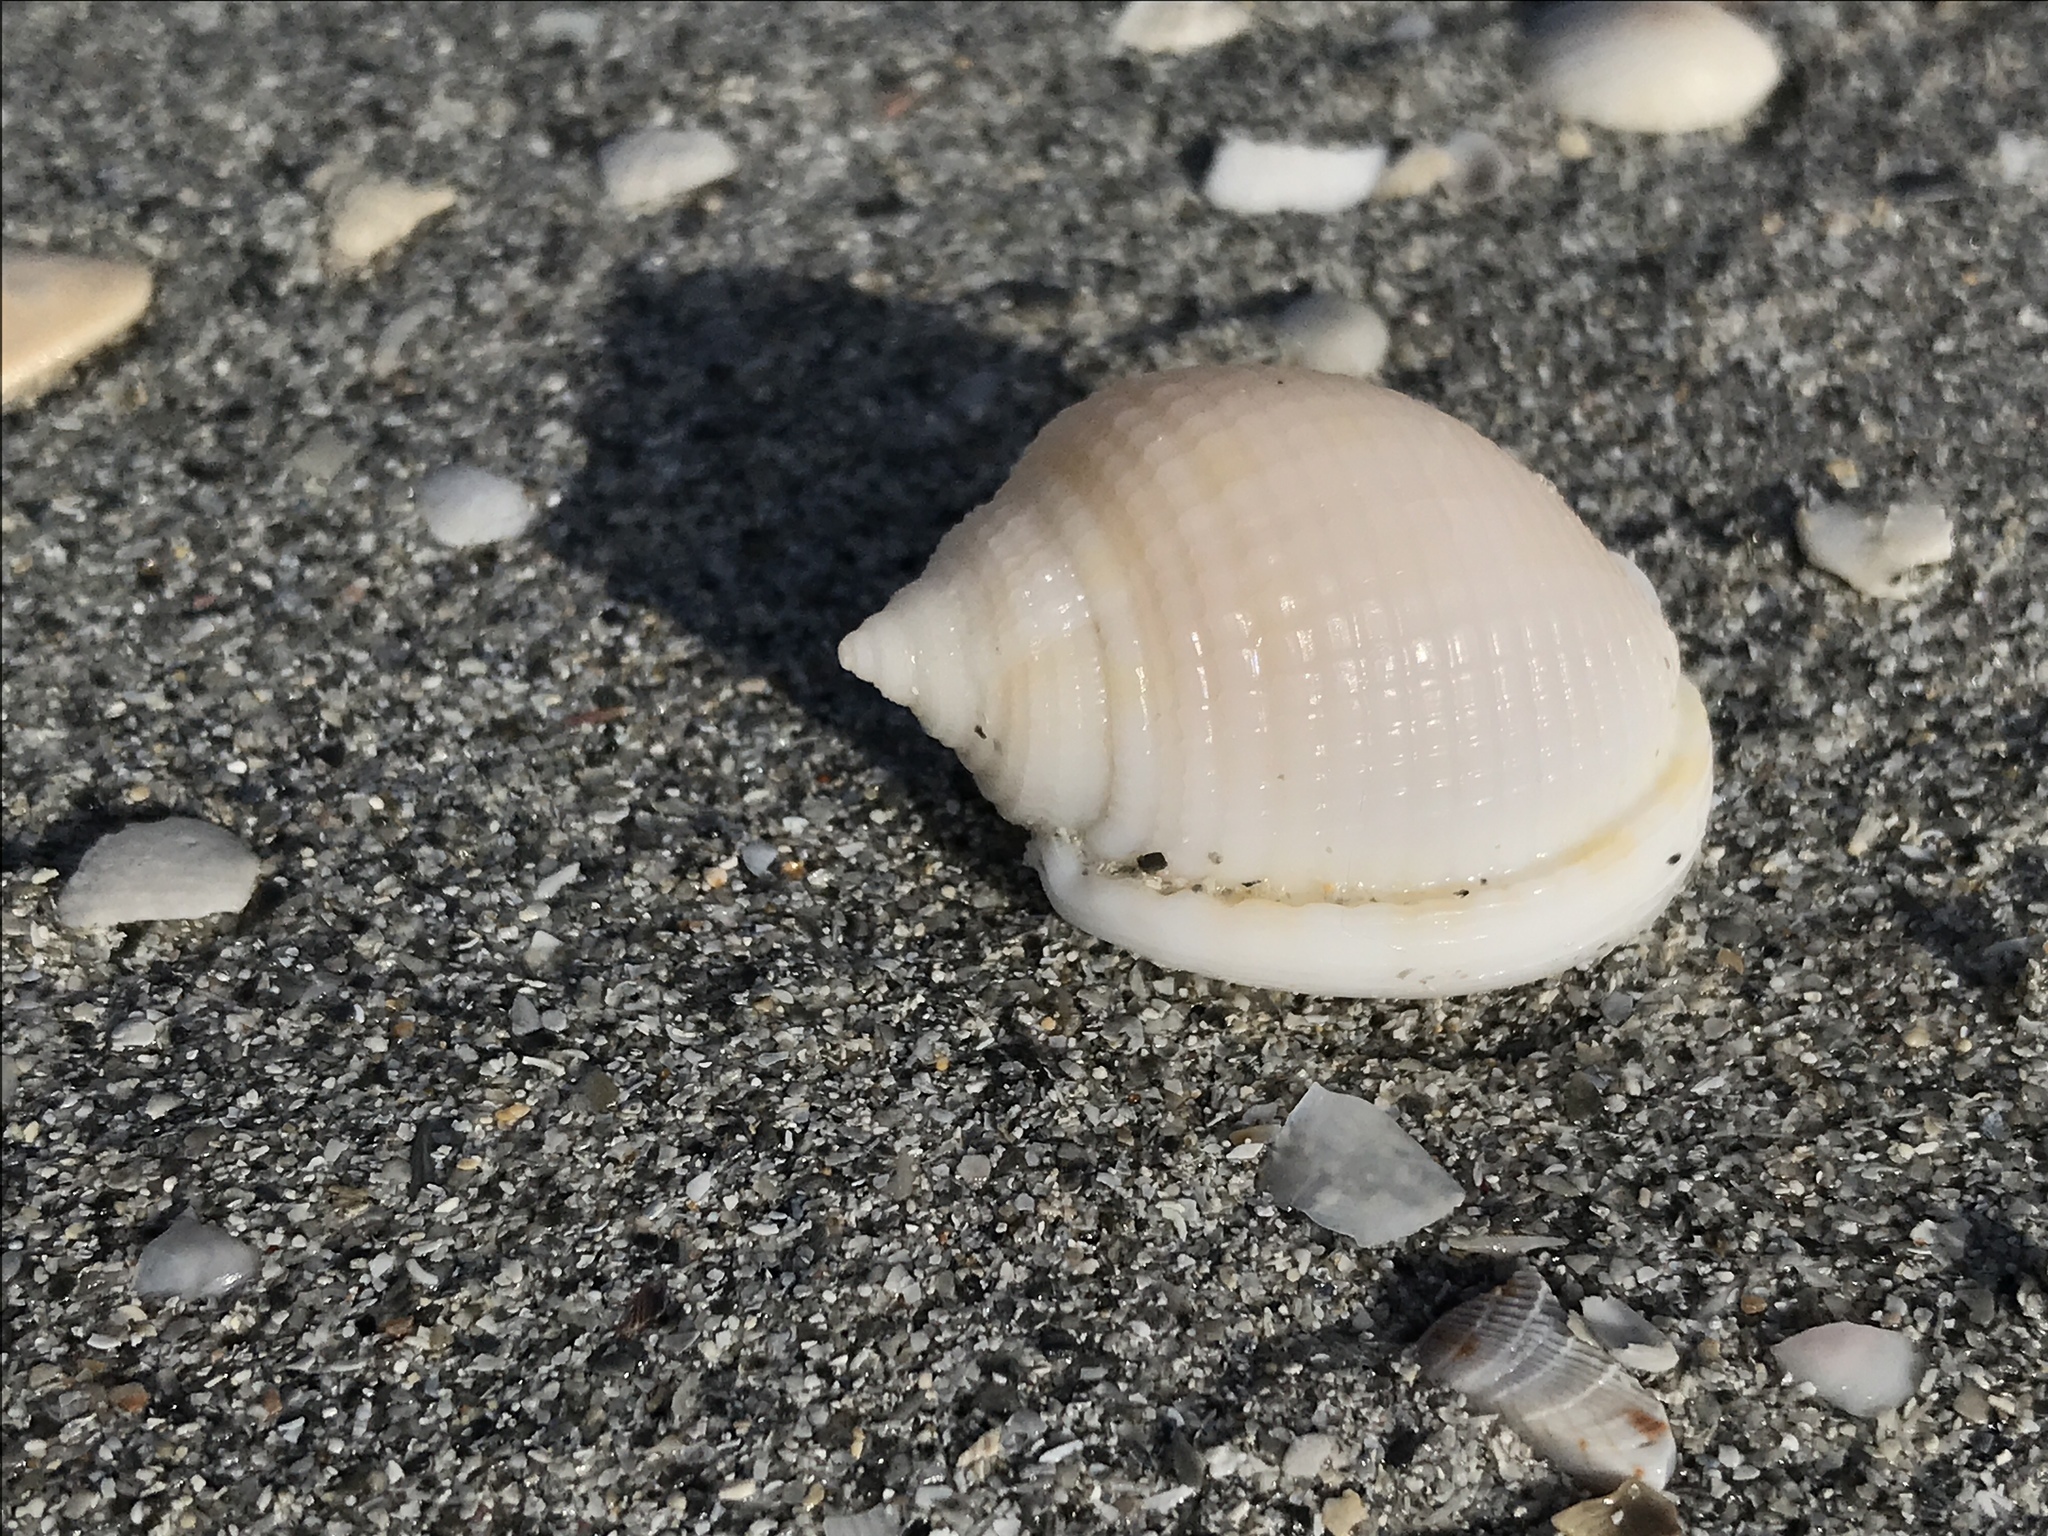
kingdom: Animalia
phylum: Mollusca
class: Gastropoda
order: Littorinimorpha
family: Cassidae
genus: Semicassis
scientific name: Semicassis granulata
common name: Scotch bonnet
